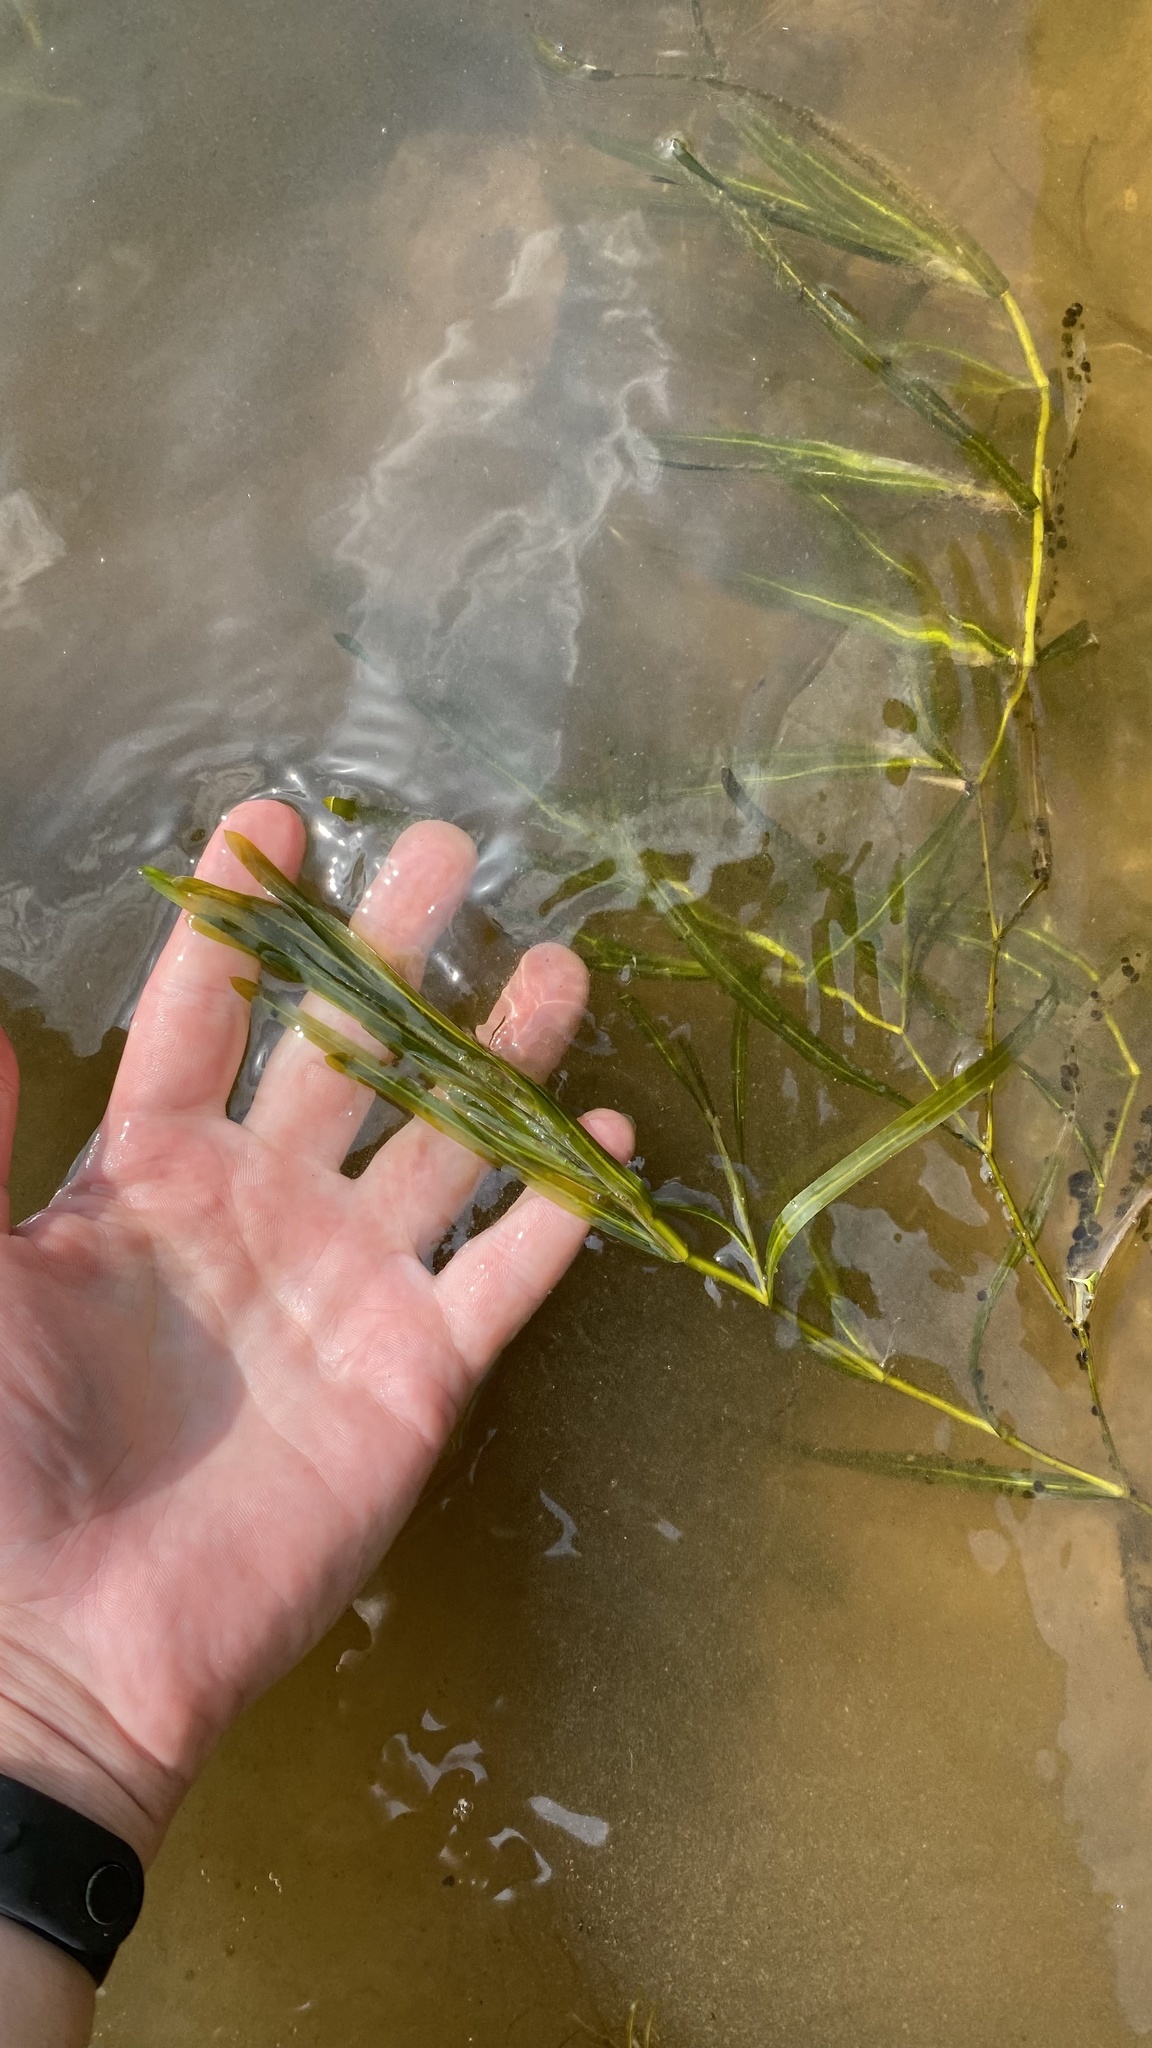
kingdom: Plantae
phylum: Tracheophyta
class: Liliopsida
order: Alismatales
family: Potamogetonaceae
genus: Potamogeton
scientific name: Potamogeton compressus
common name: Grass-wrack pondweed
